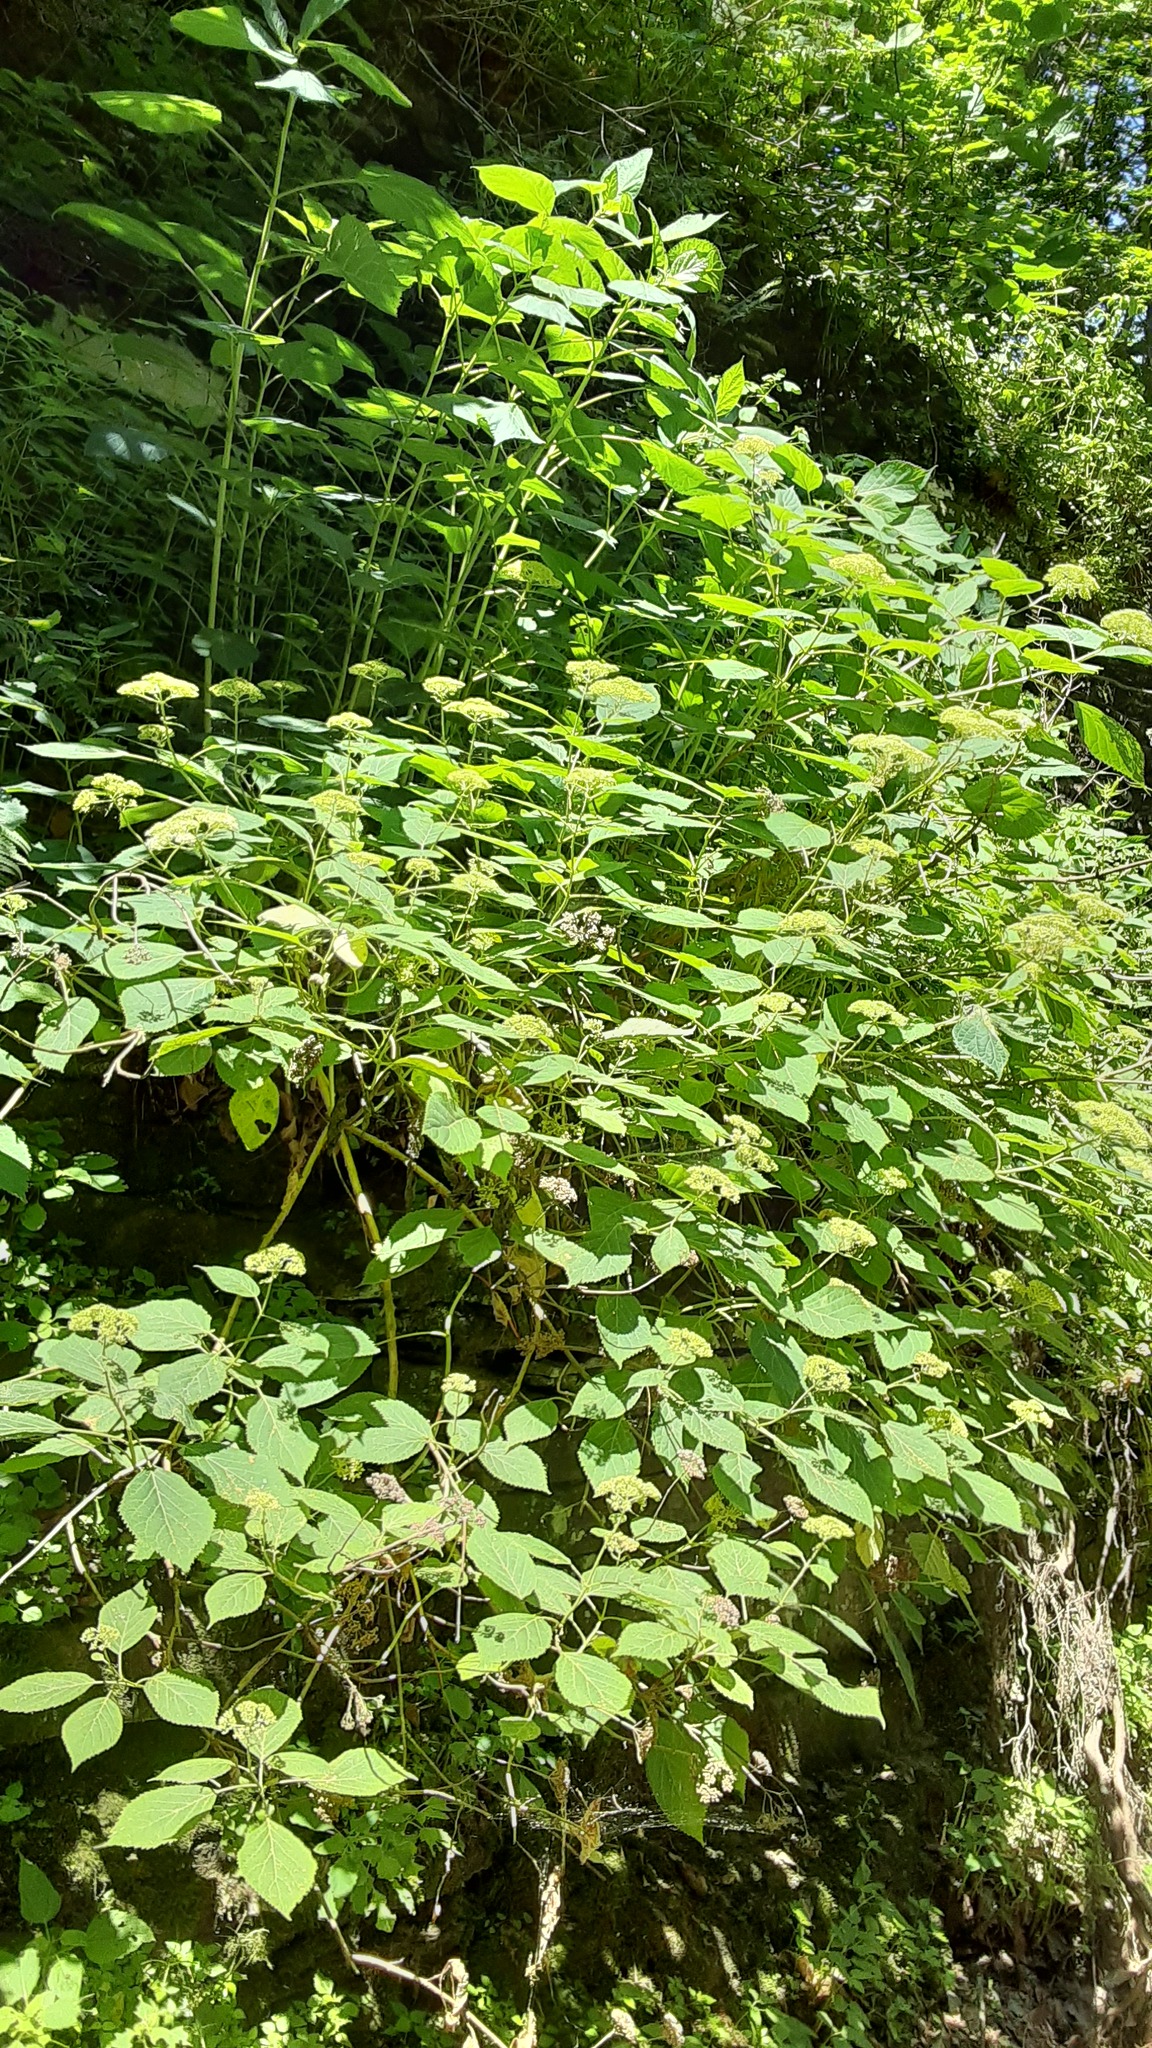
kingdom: Plantae
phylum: Tracheophyta
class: Magnoliopsida
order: Cornales
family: Hydrangeaceae
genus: Hydrangea
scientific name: Hydrangea arborescens
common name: Sevenbark
